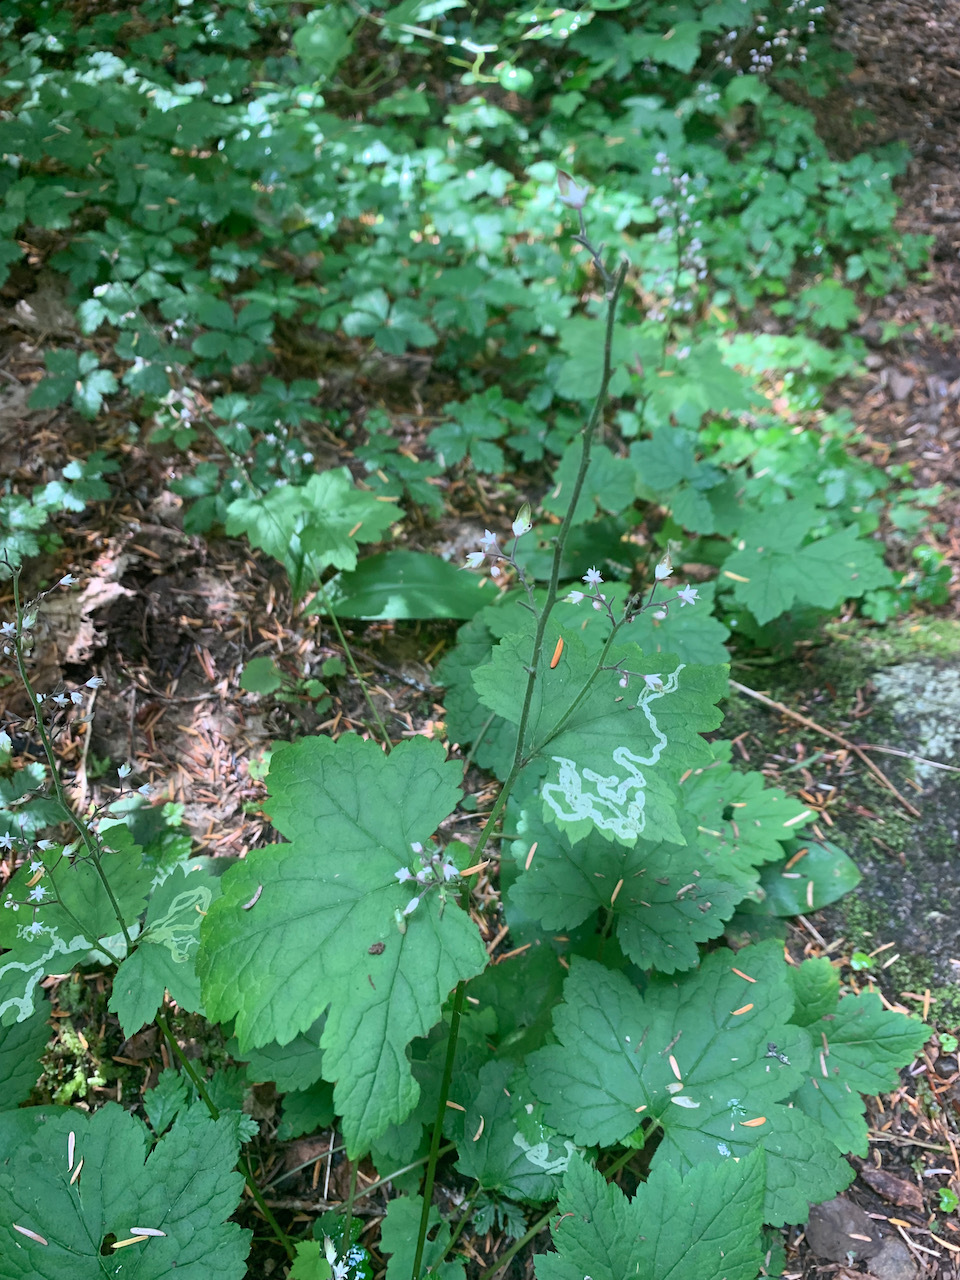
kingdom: Plantae
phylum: Tracheophyta
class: Magnoliopsida
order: Saxifragales
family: Saxifragaceae
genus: Tiarella
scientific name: Tiarella trifoliata
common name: Sugar-scoop
